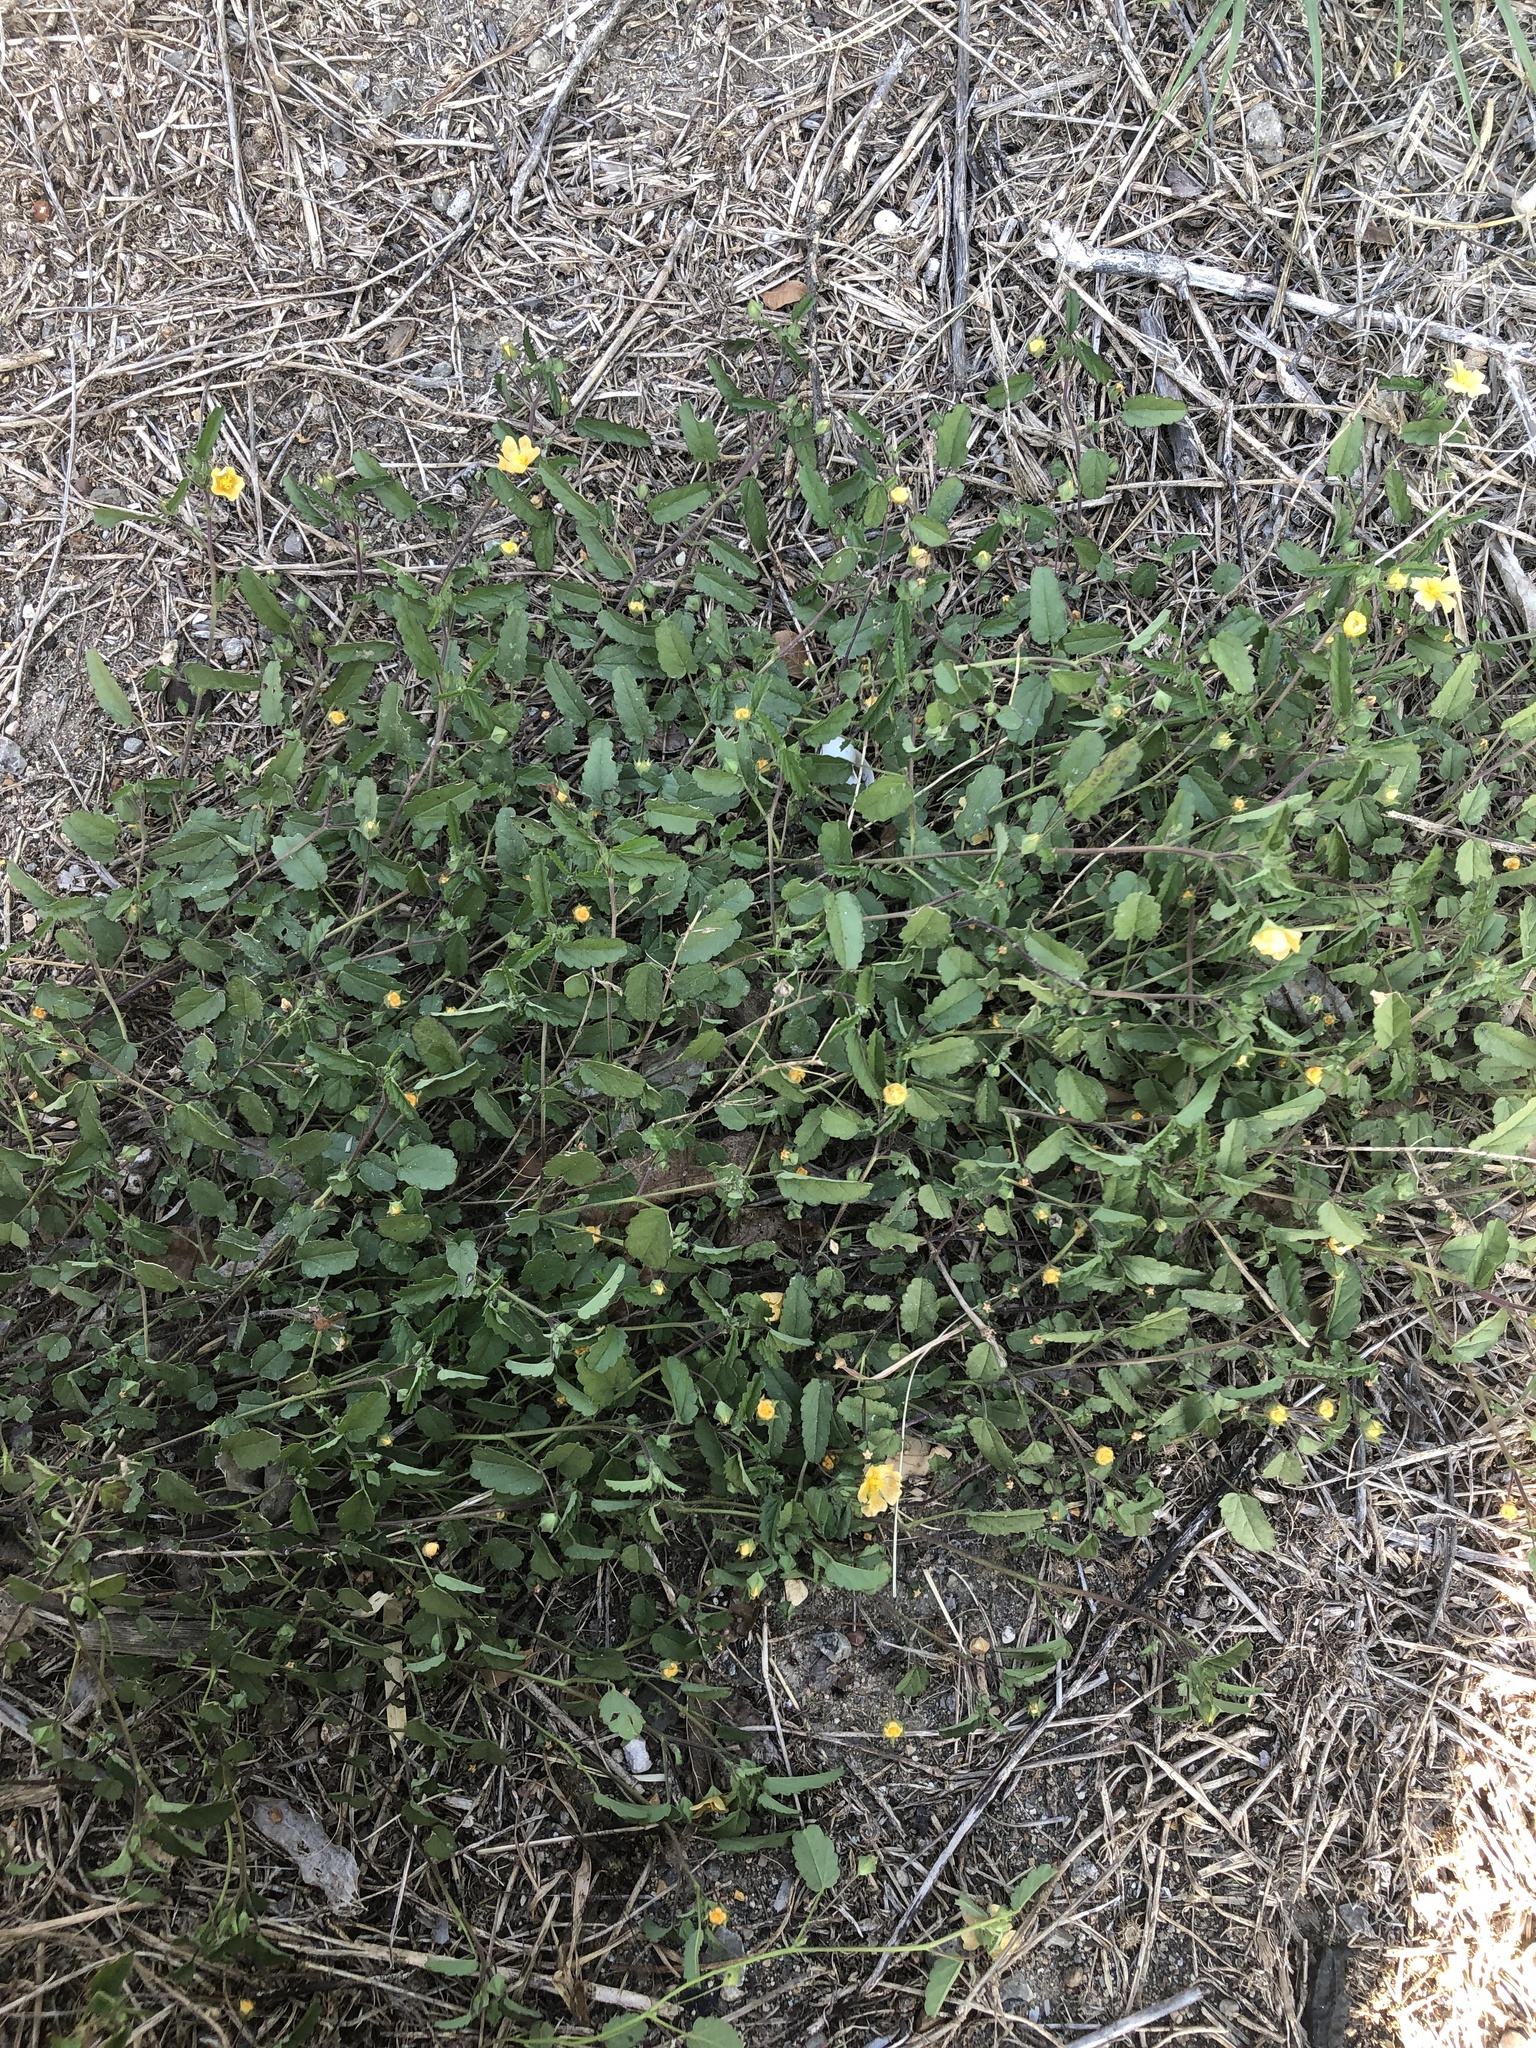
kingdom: Plantae
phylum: Tracheophyta
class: Magnoliopsida
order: Malvales
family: Malvaceae
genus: Sida
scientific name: Sida abutilifolia
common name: Spreading fanpetals
